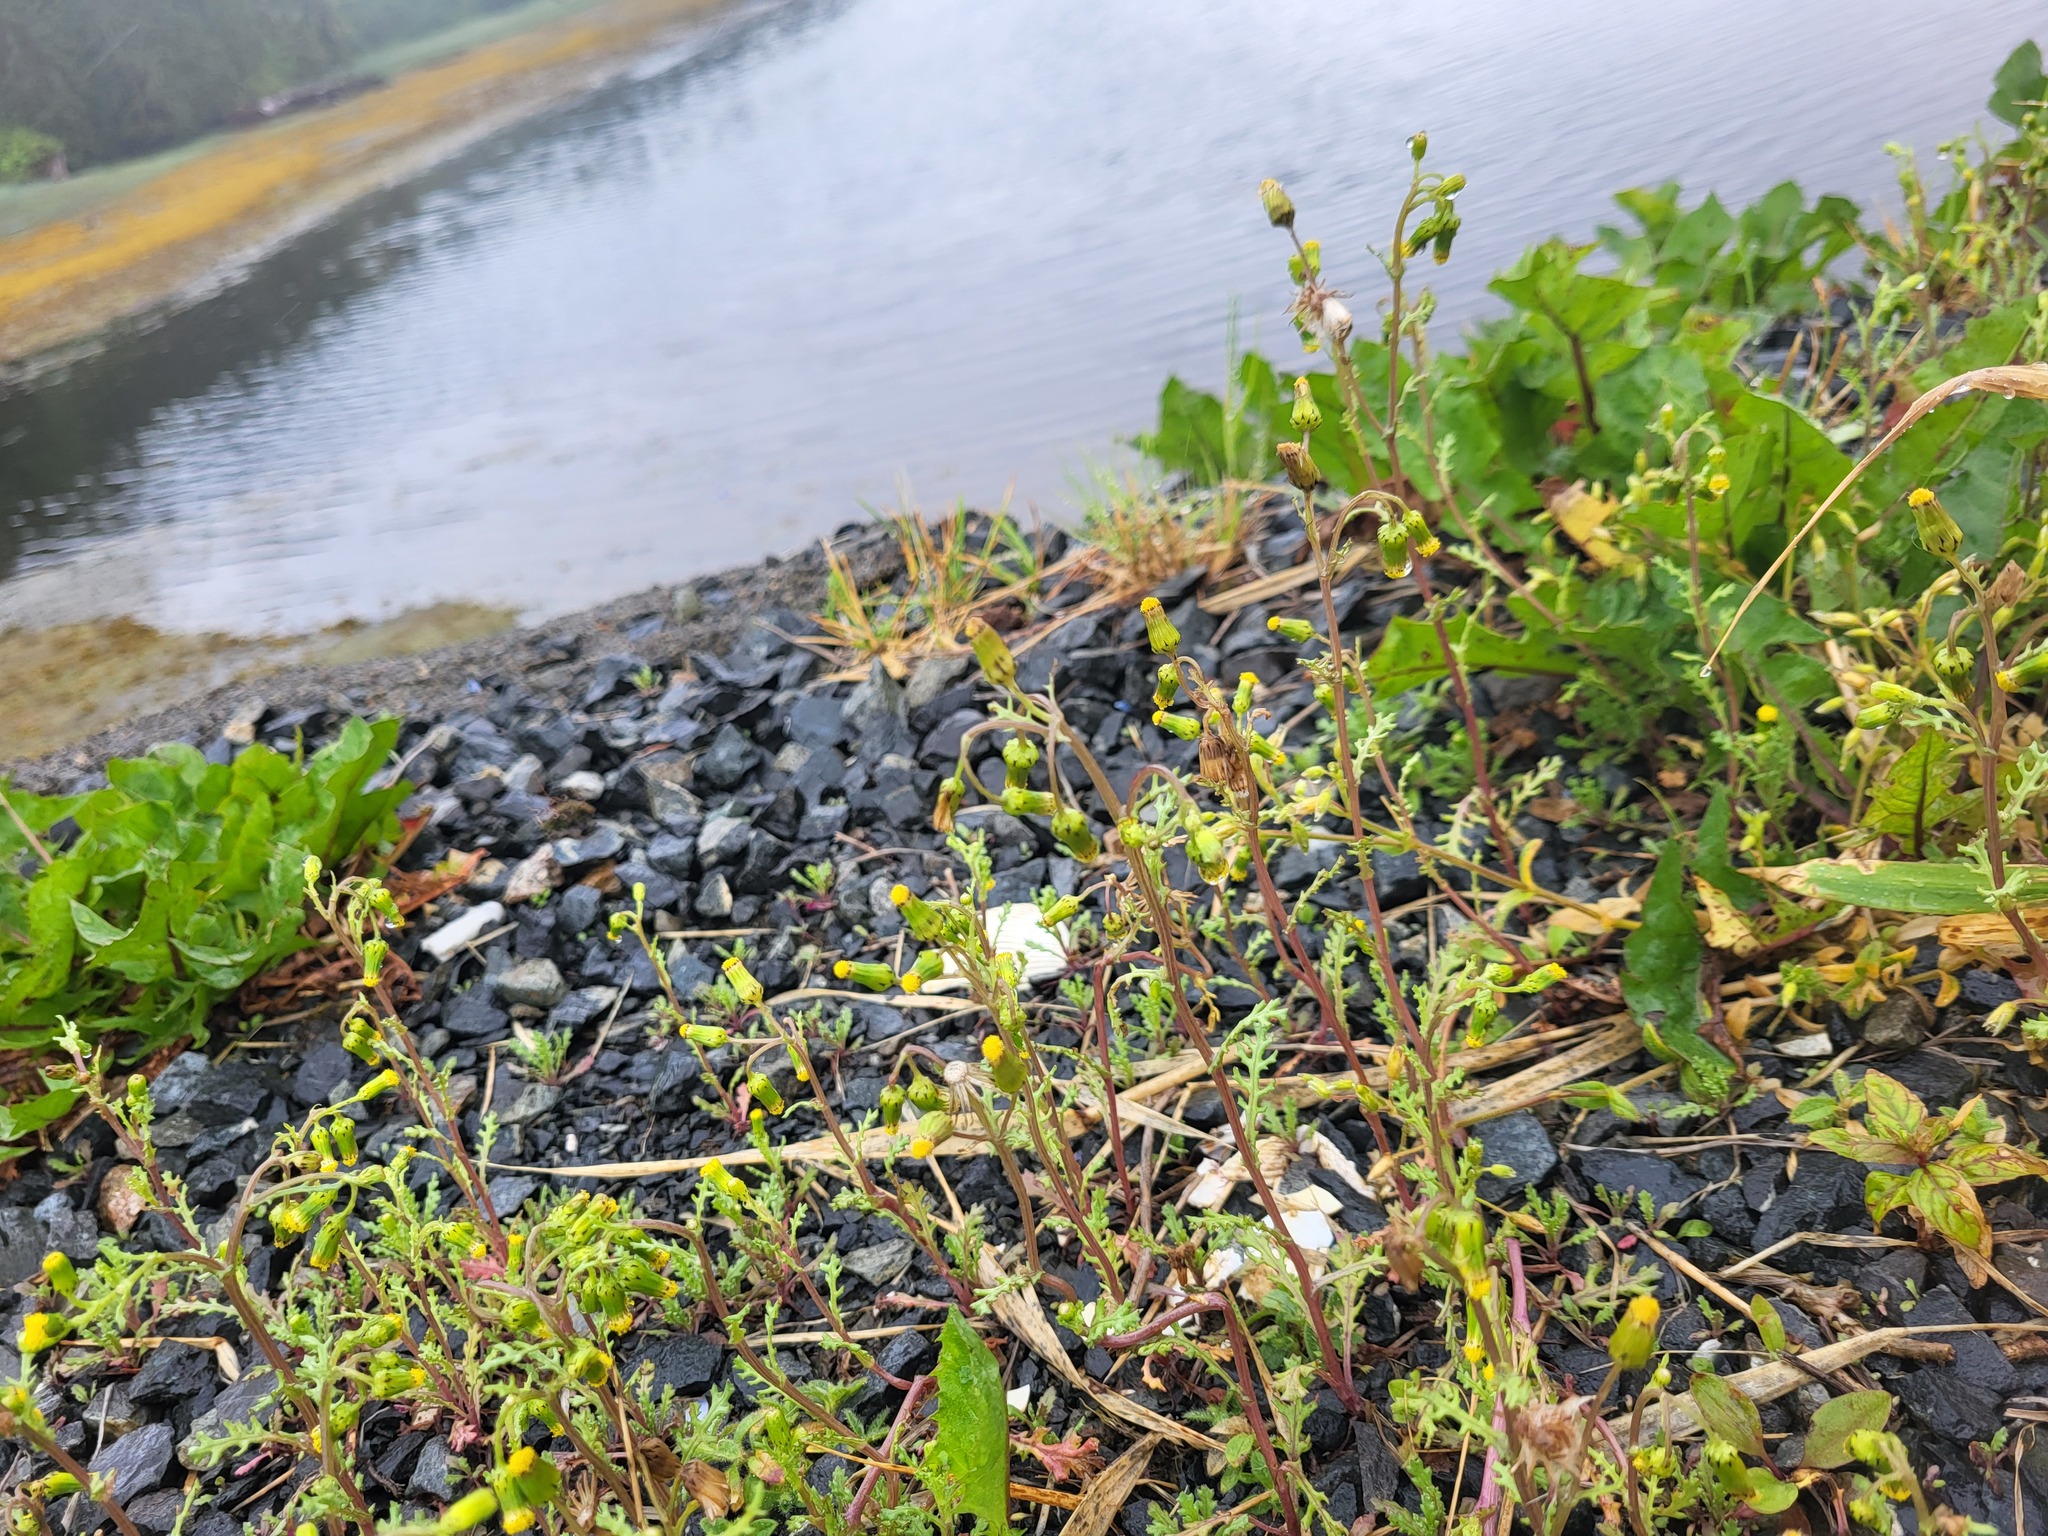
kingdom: Plantae
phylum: Tracheophyta
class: Magnoliopsida
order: Asterales
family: Asteraceae
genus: Senecio
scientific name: Senecio vulgaris
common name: Old-man-in-the-spring
